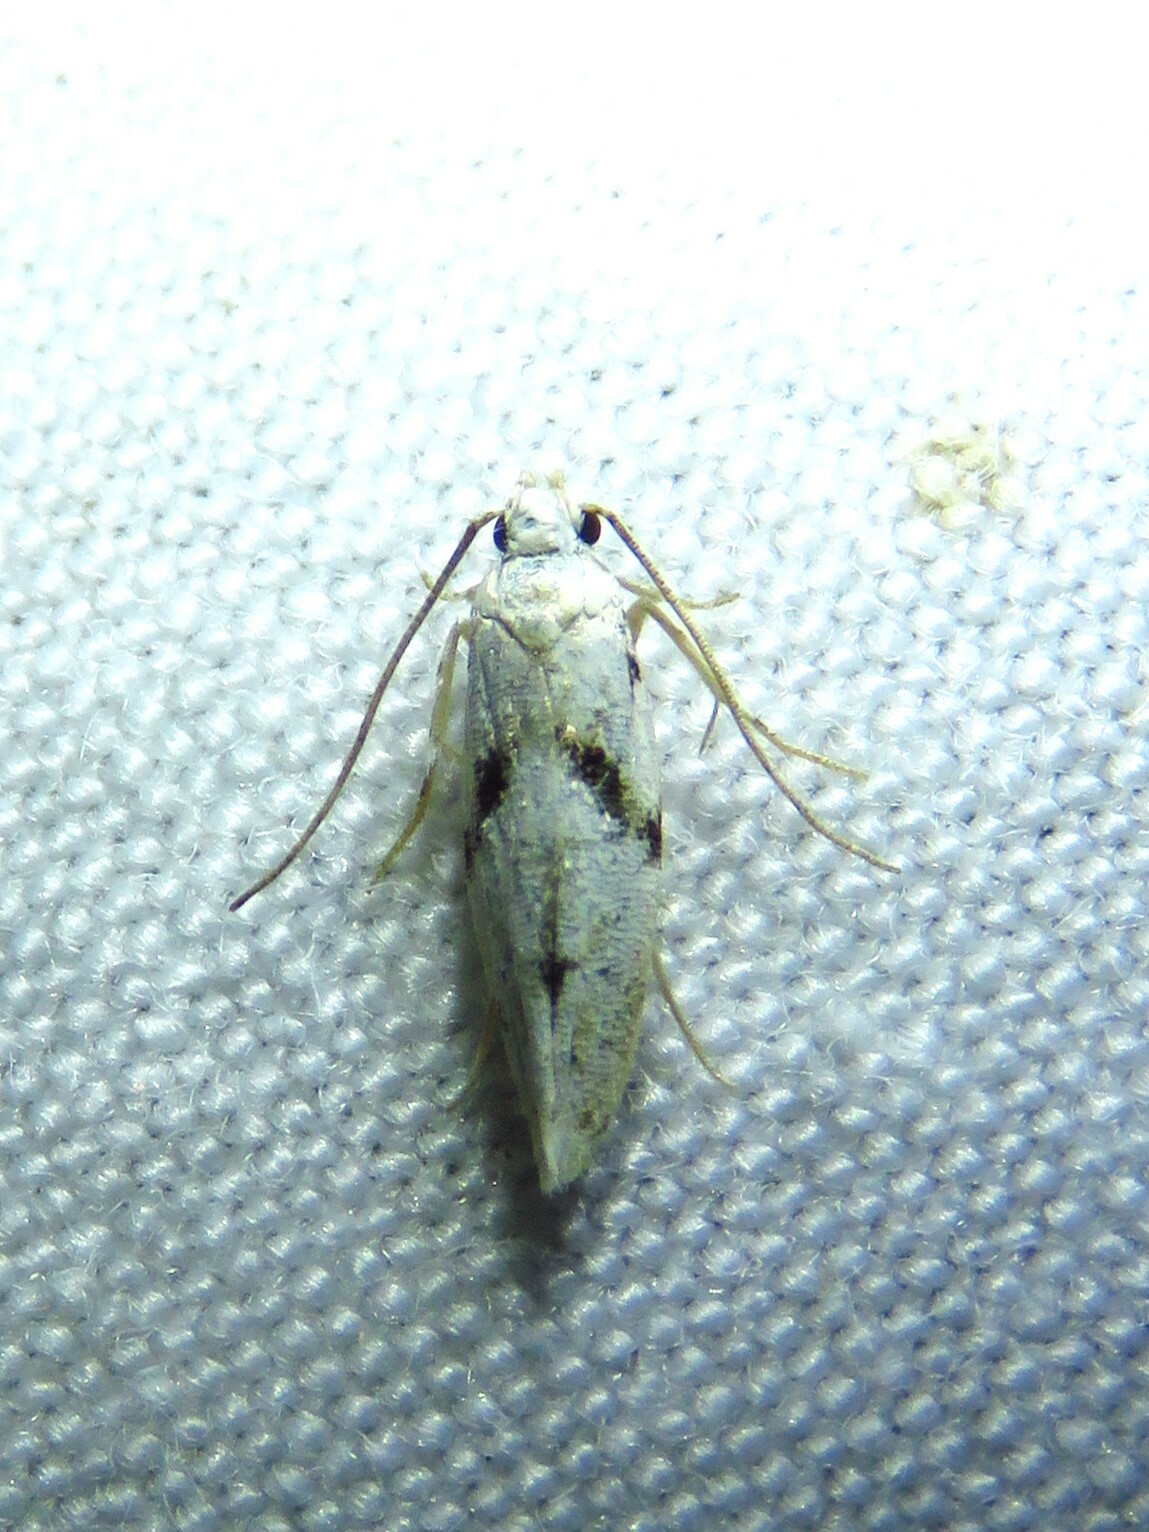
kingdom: Animalia
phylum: Arthropoda
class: Insecta
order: Lepidoptera
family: Gelechiidae
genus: Arogalea
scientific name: Arogalea cristifasciella
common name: White stripe-backed moth
